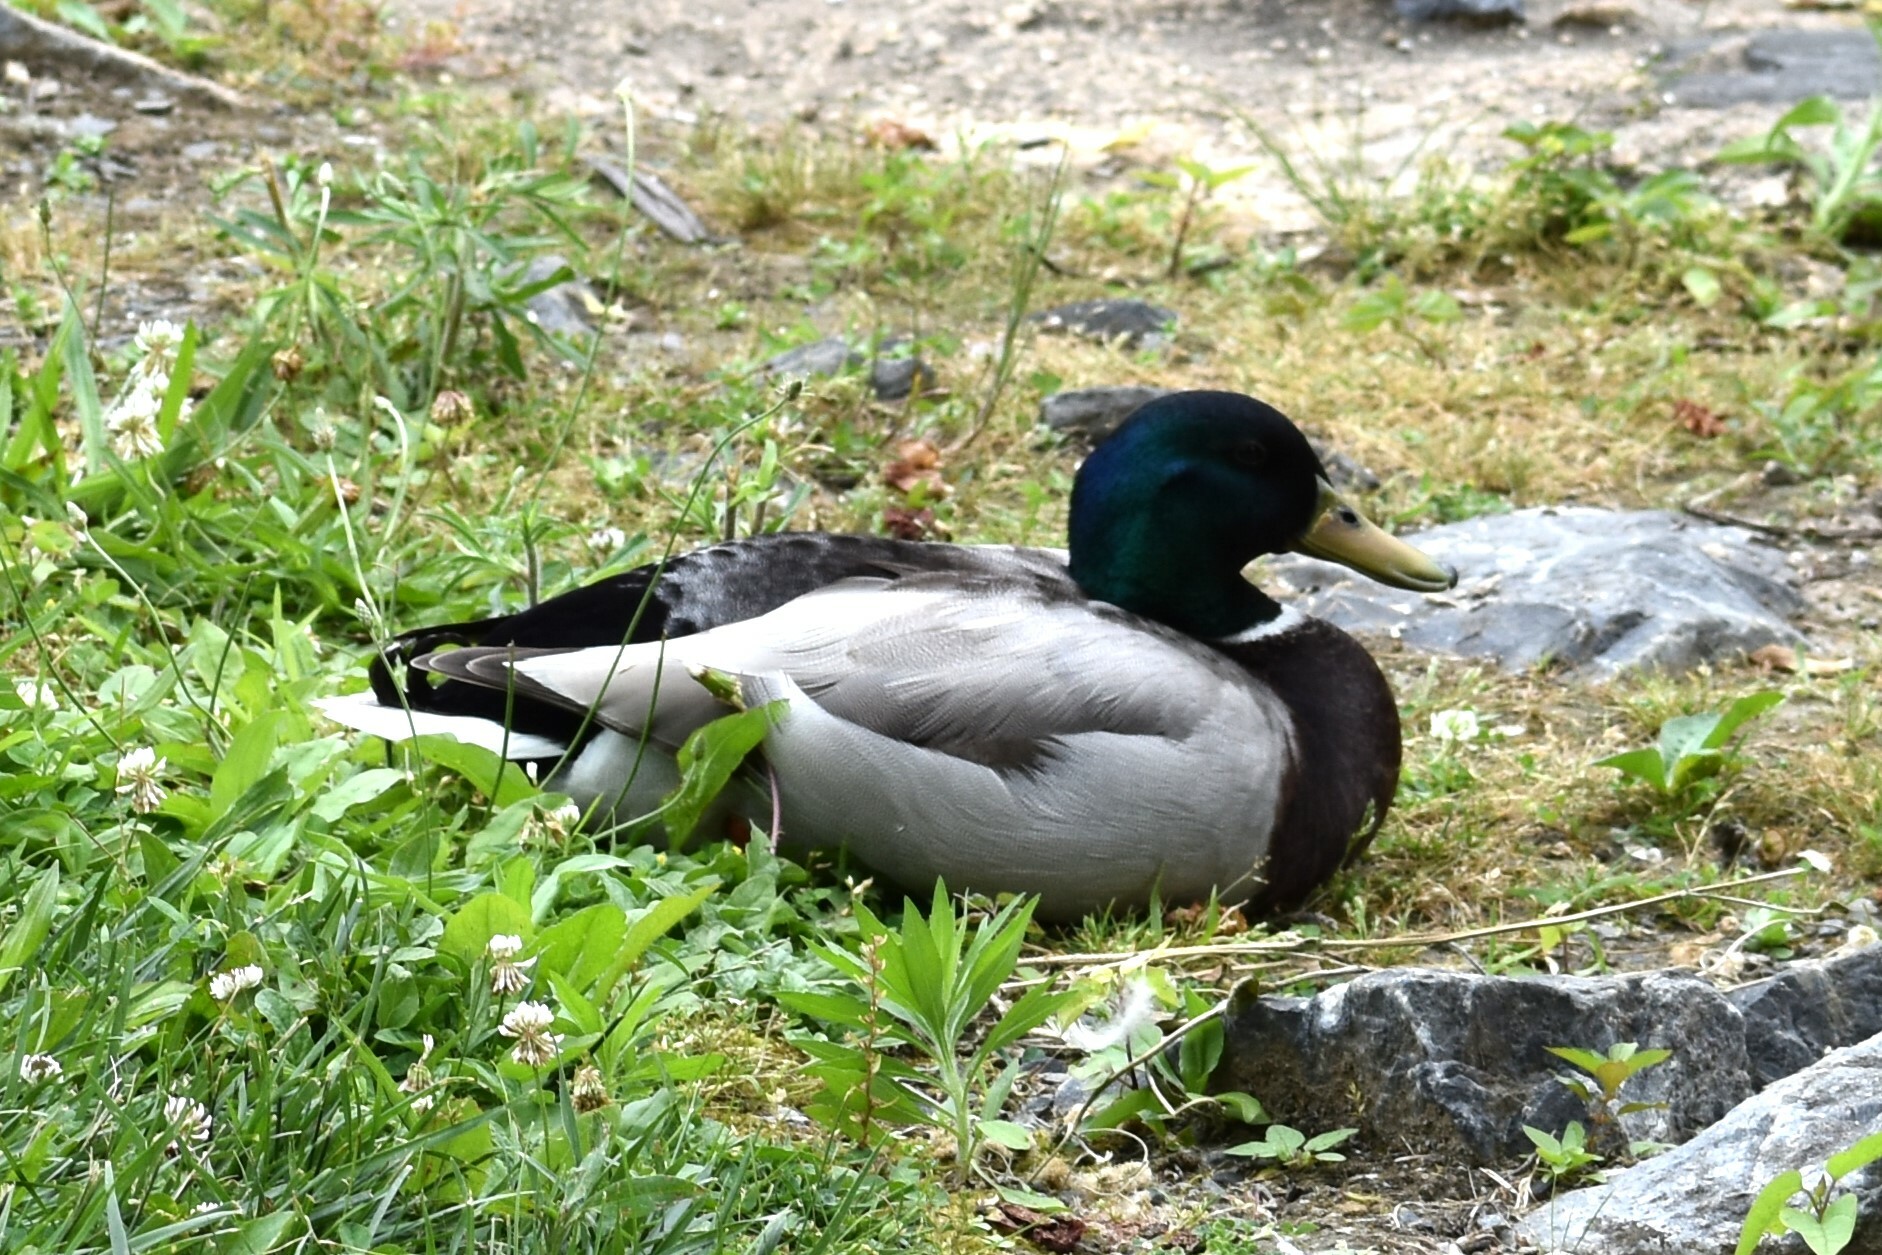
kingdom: Animalia
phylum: Chordata
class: Aves
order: Anseriformes
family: Anatidae
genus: Anas
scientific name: Anas platyrhynchos
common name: Mallard
